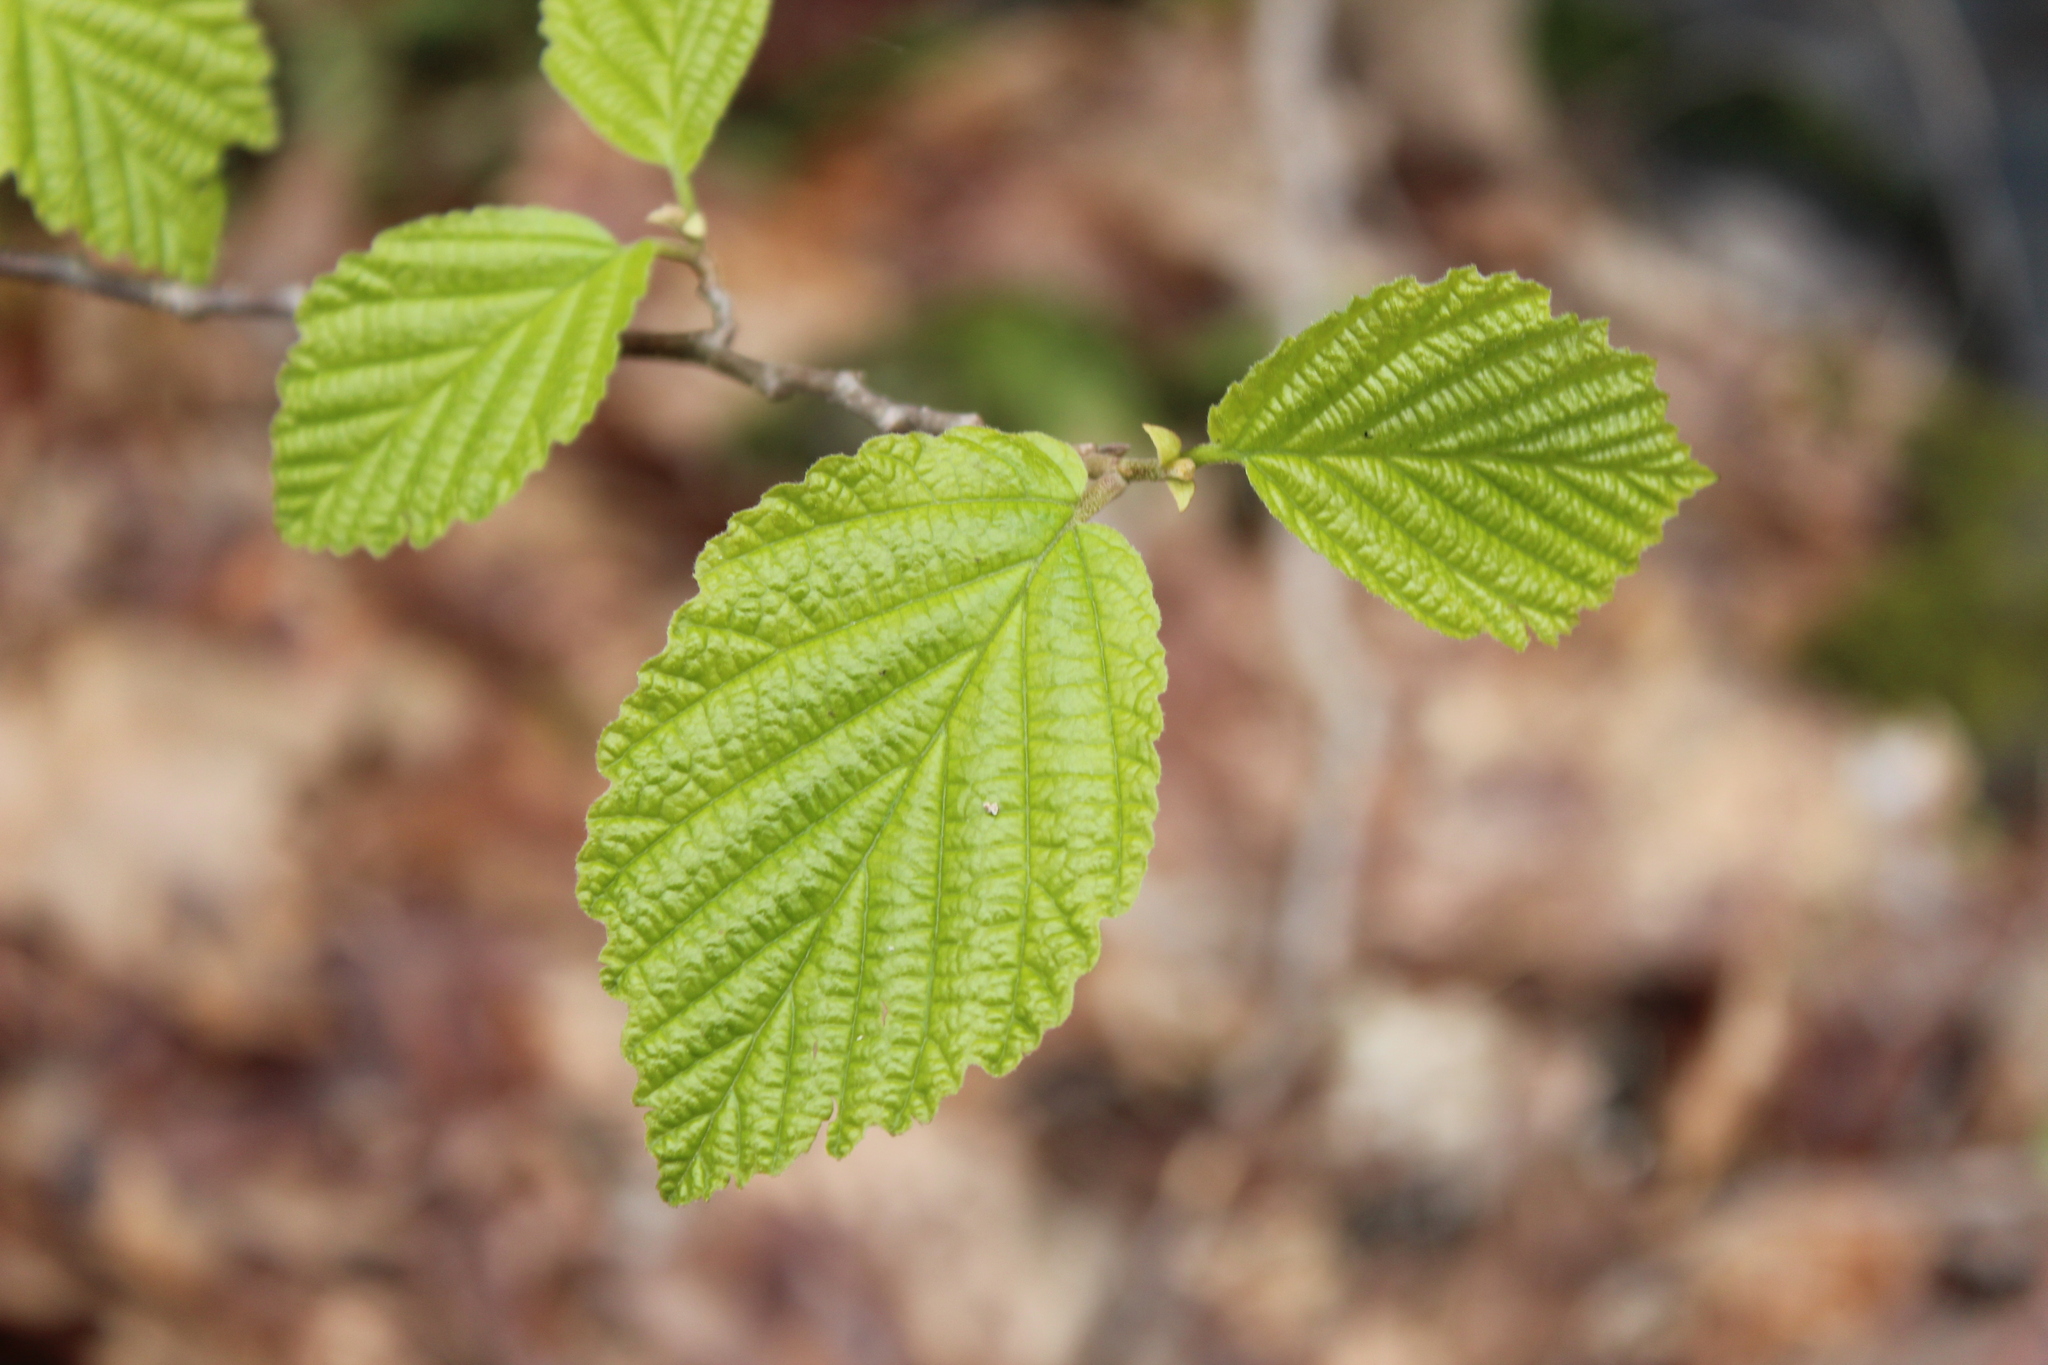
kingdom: Plantae
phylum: Tracheophyta
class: Magnoliopsida
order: Saxifragales
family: Hamamelidaceae
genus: Hamamelis
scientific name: Hamamelis virginiana
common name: Witch-hazel
